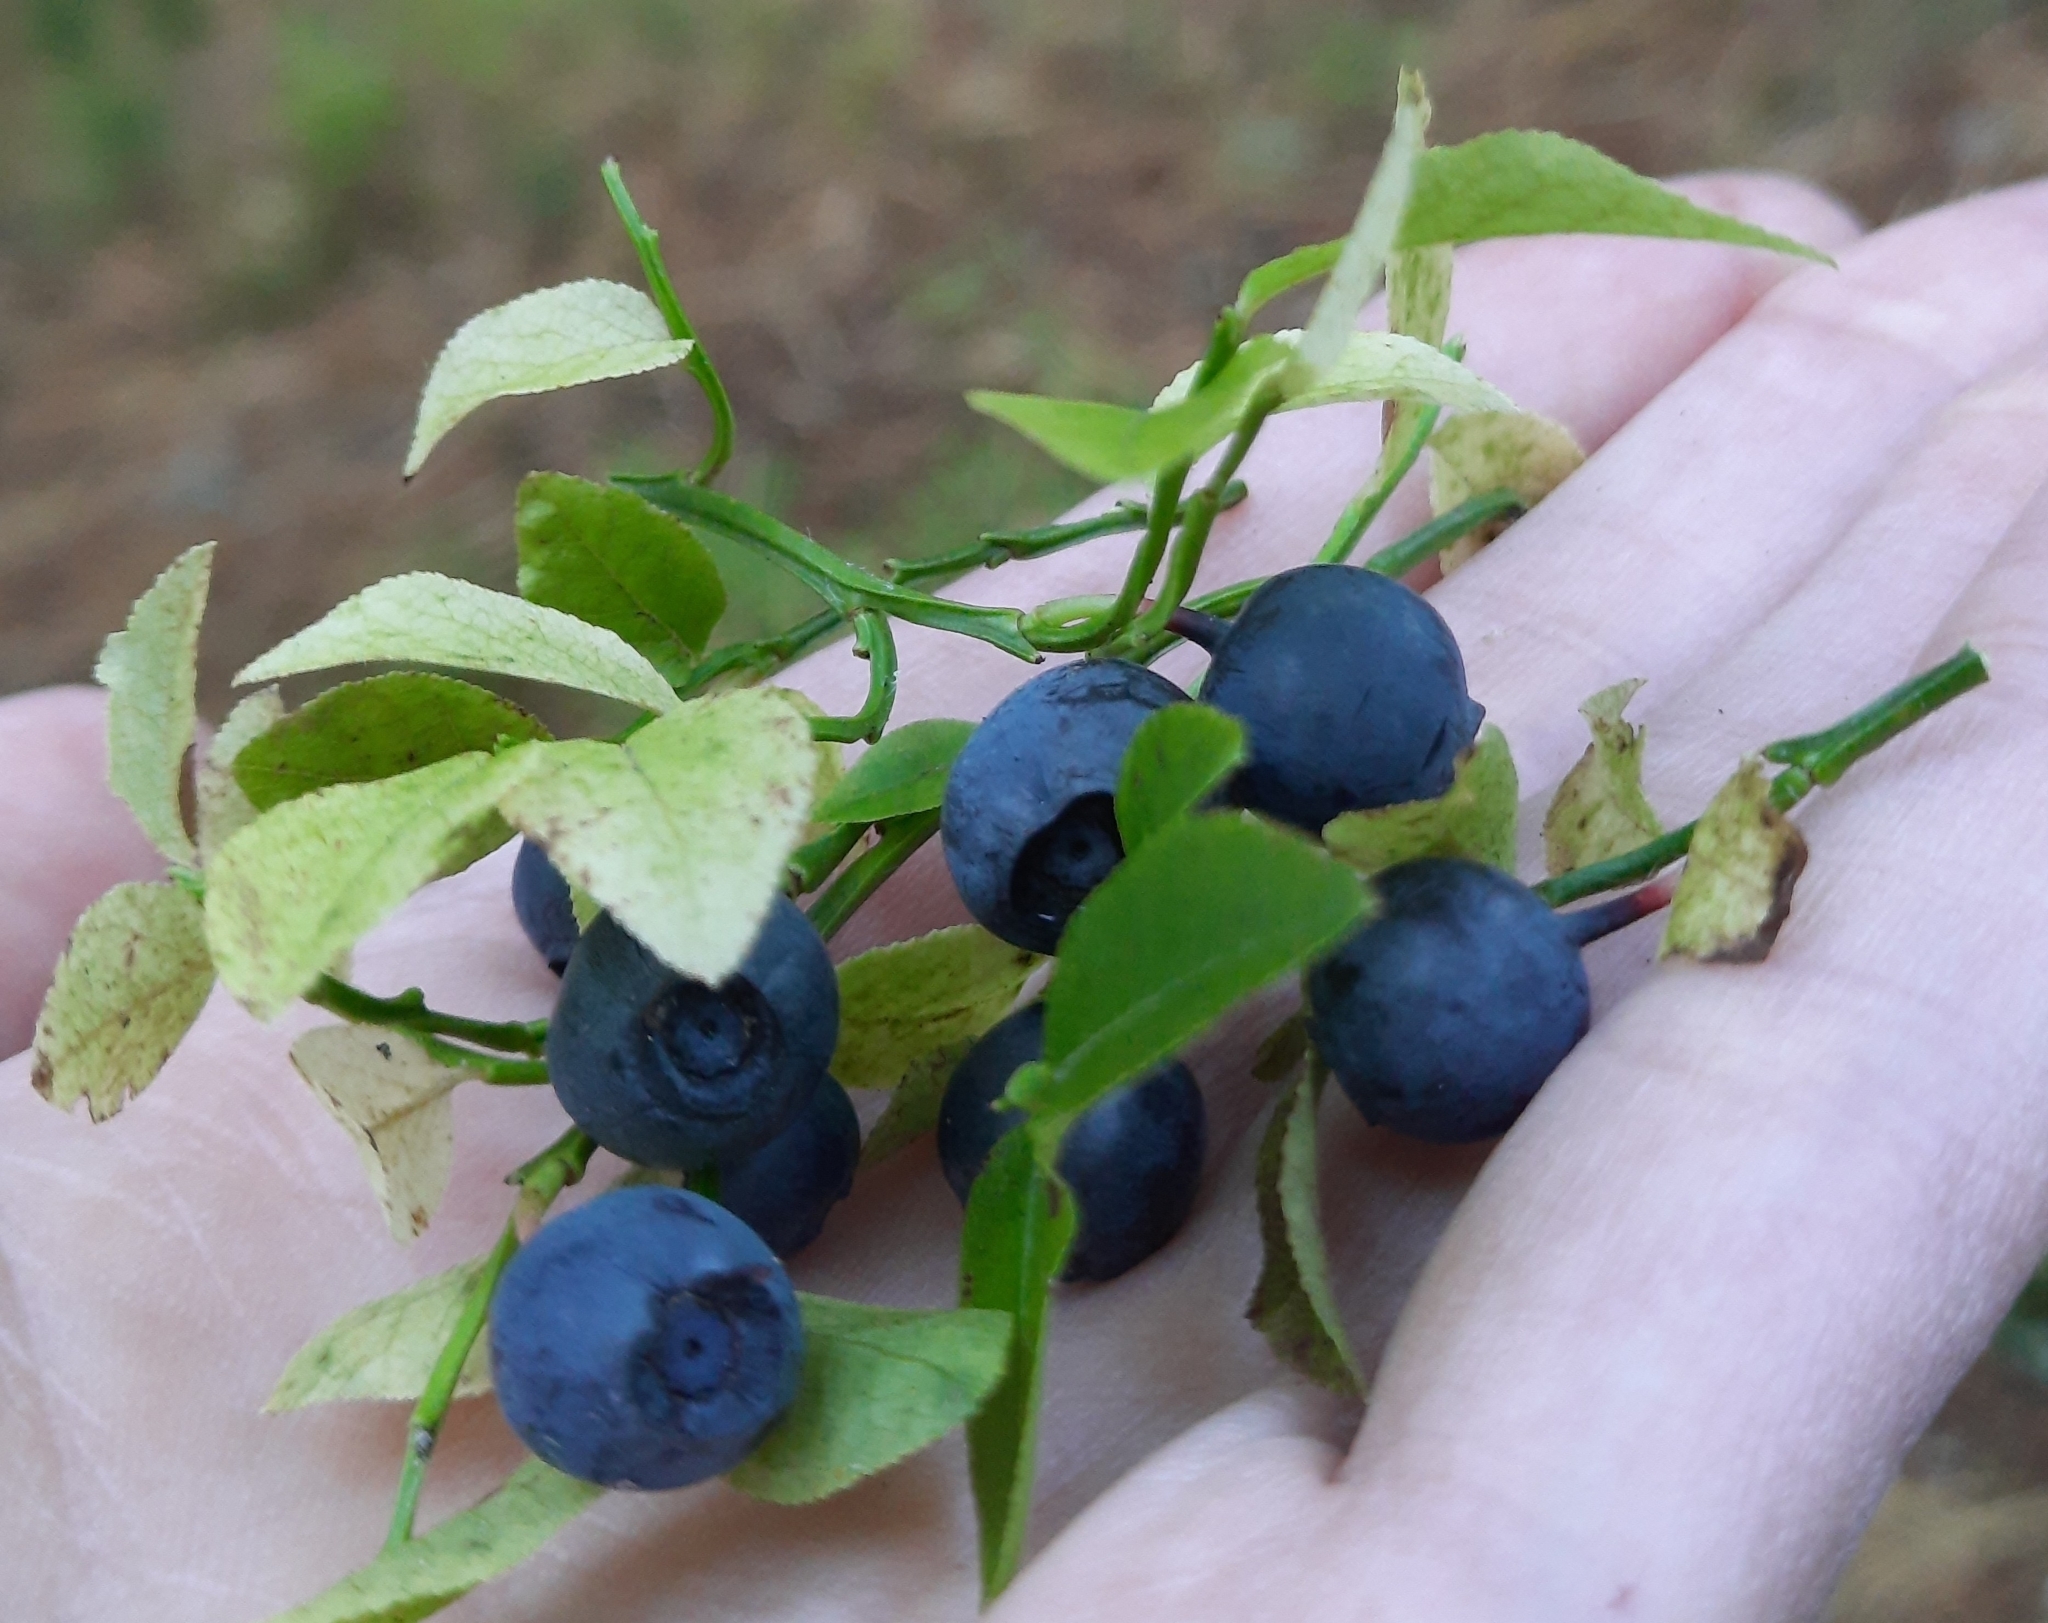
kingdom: Plantae
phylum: Tracheophyta
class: Magnoliopsida
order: Ericales
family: Ericaceae
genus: Vaccinium
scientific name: Vaccinium myrtillus
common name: Bilberry
